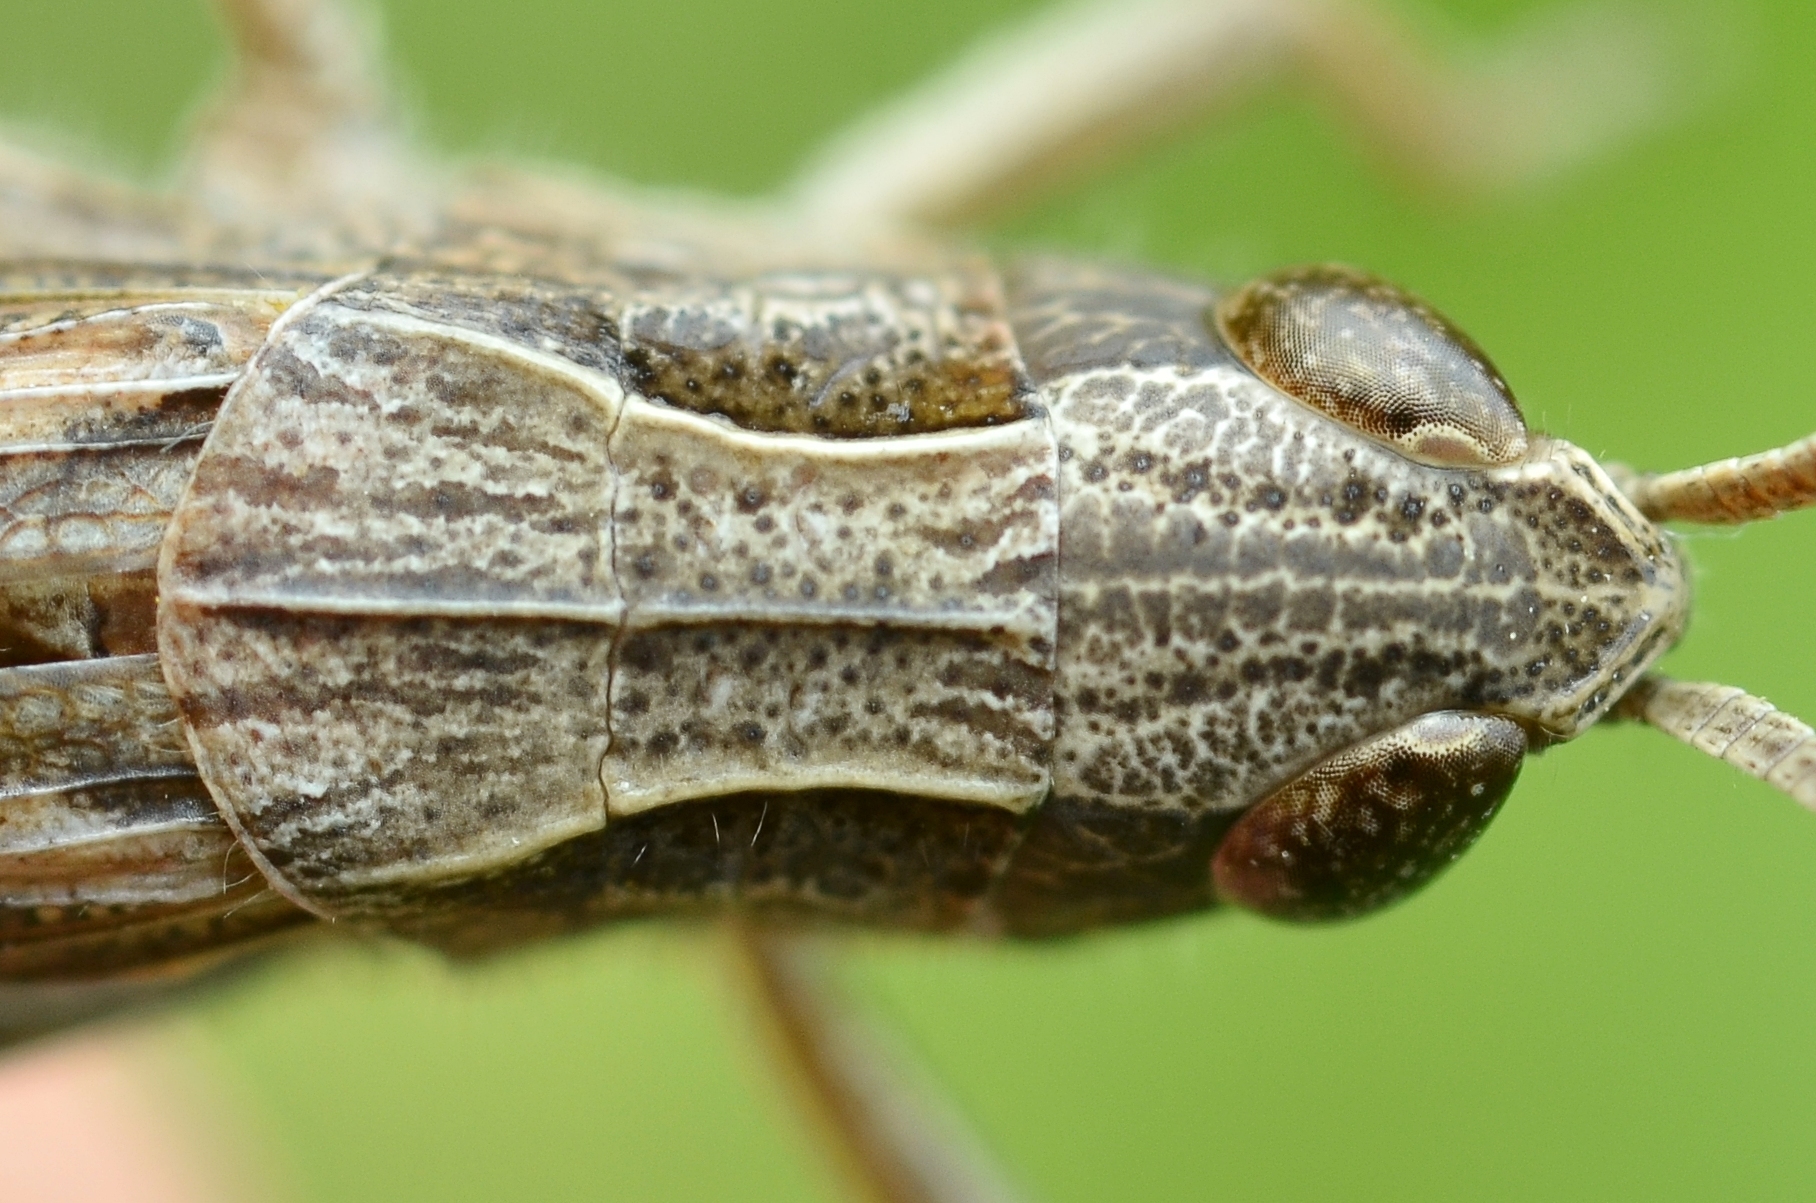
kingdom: Animalia
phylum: Arthropoda
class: Insecta
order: Orthoptera
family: Acrididae
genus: Chorthippus
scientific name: Chorthippus dorsatus
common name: Steppe grasshopper
